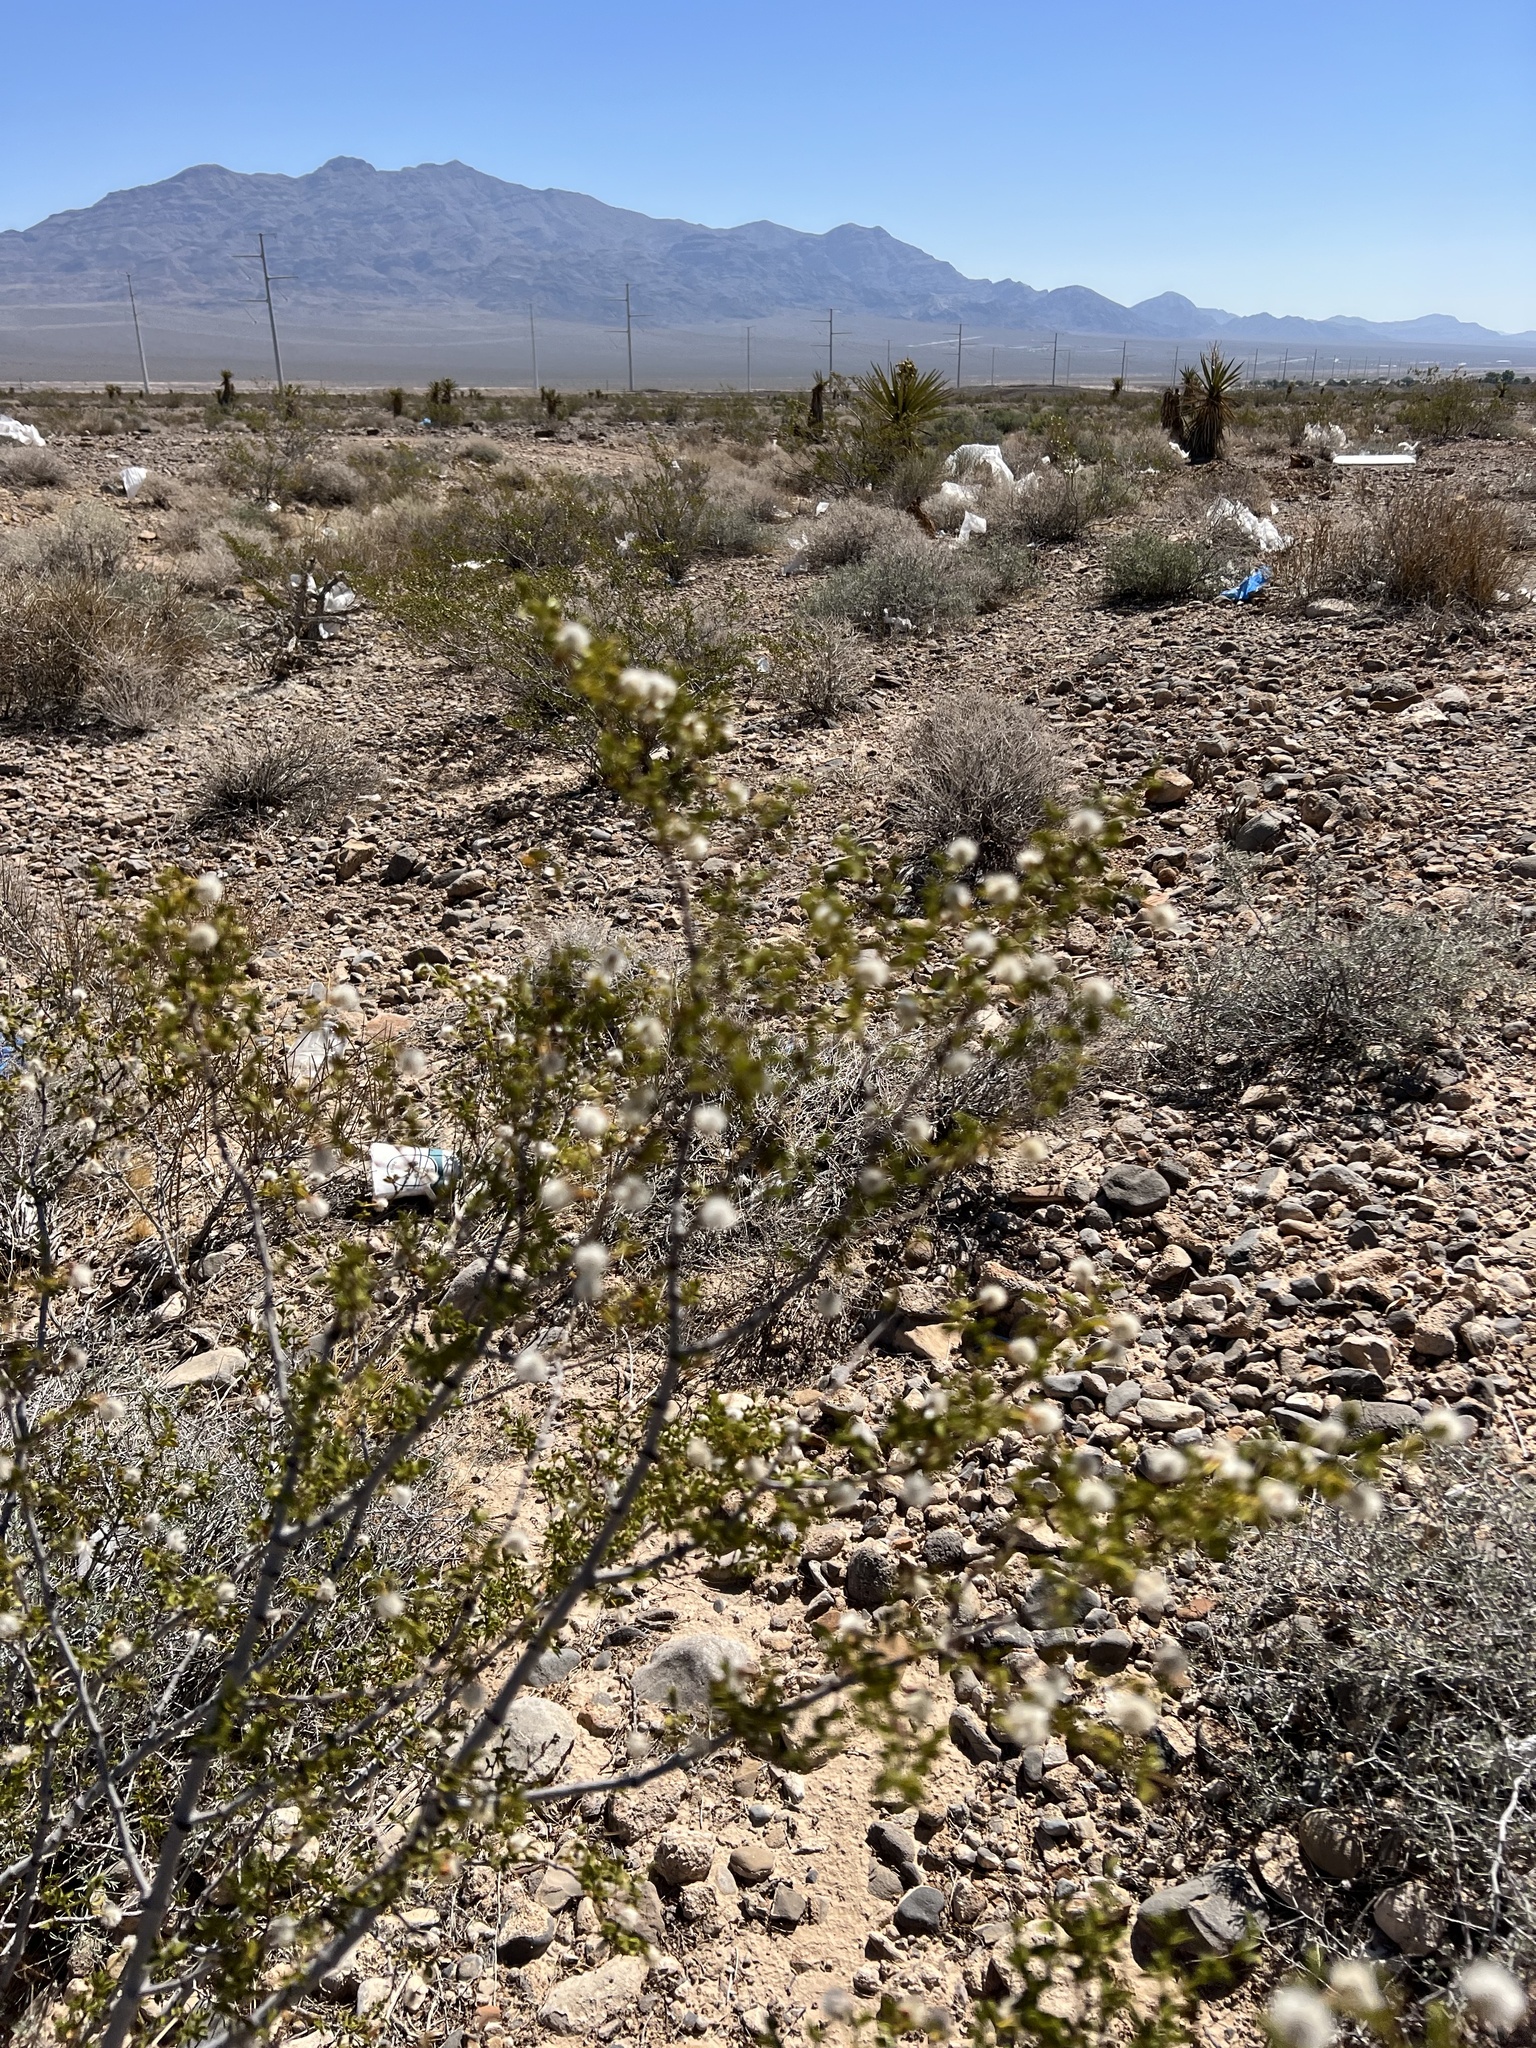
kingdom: Plantae
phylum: Tracheophyta
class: Magnoliopsida
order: Zygophyllales
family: Zygophyllaceae
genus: Larrea
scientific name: Larrea tridentata
